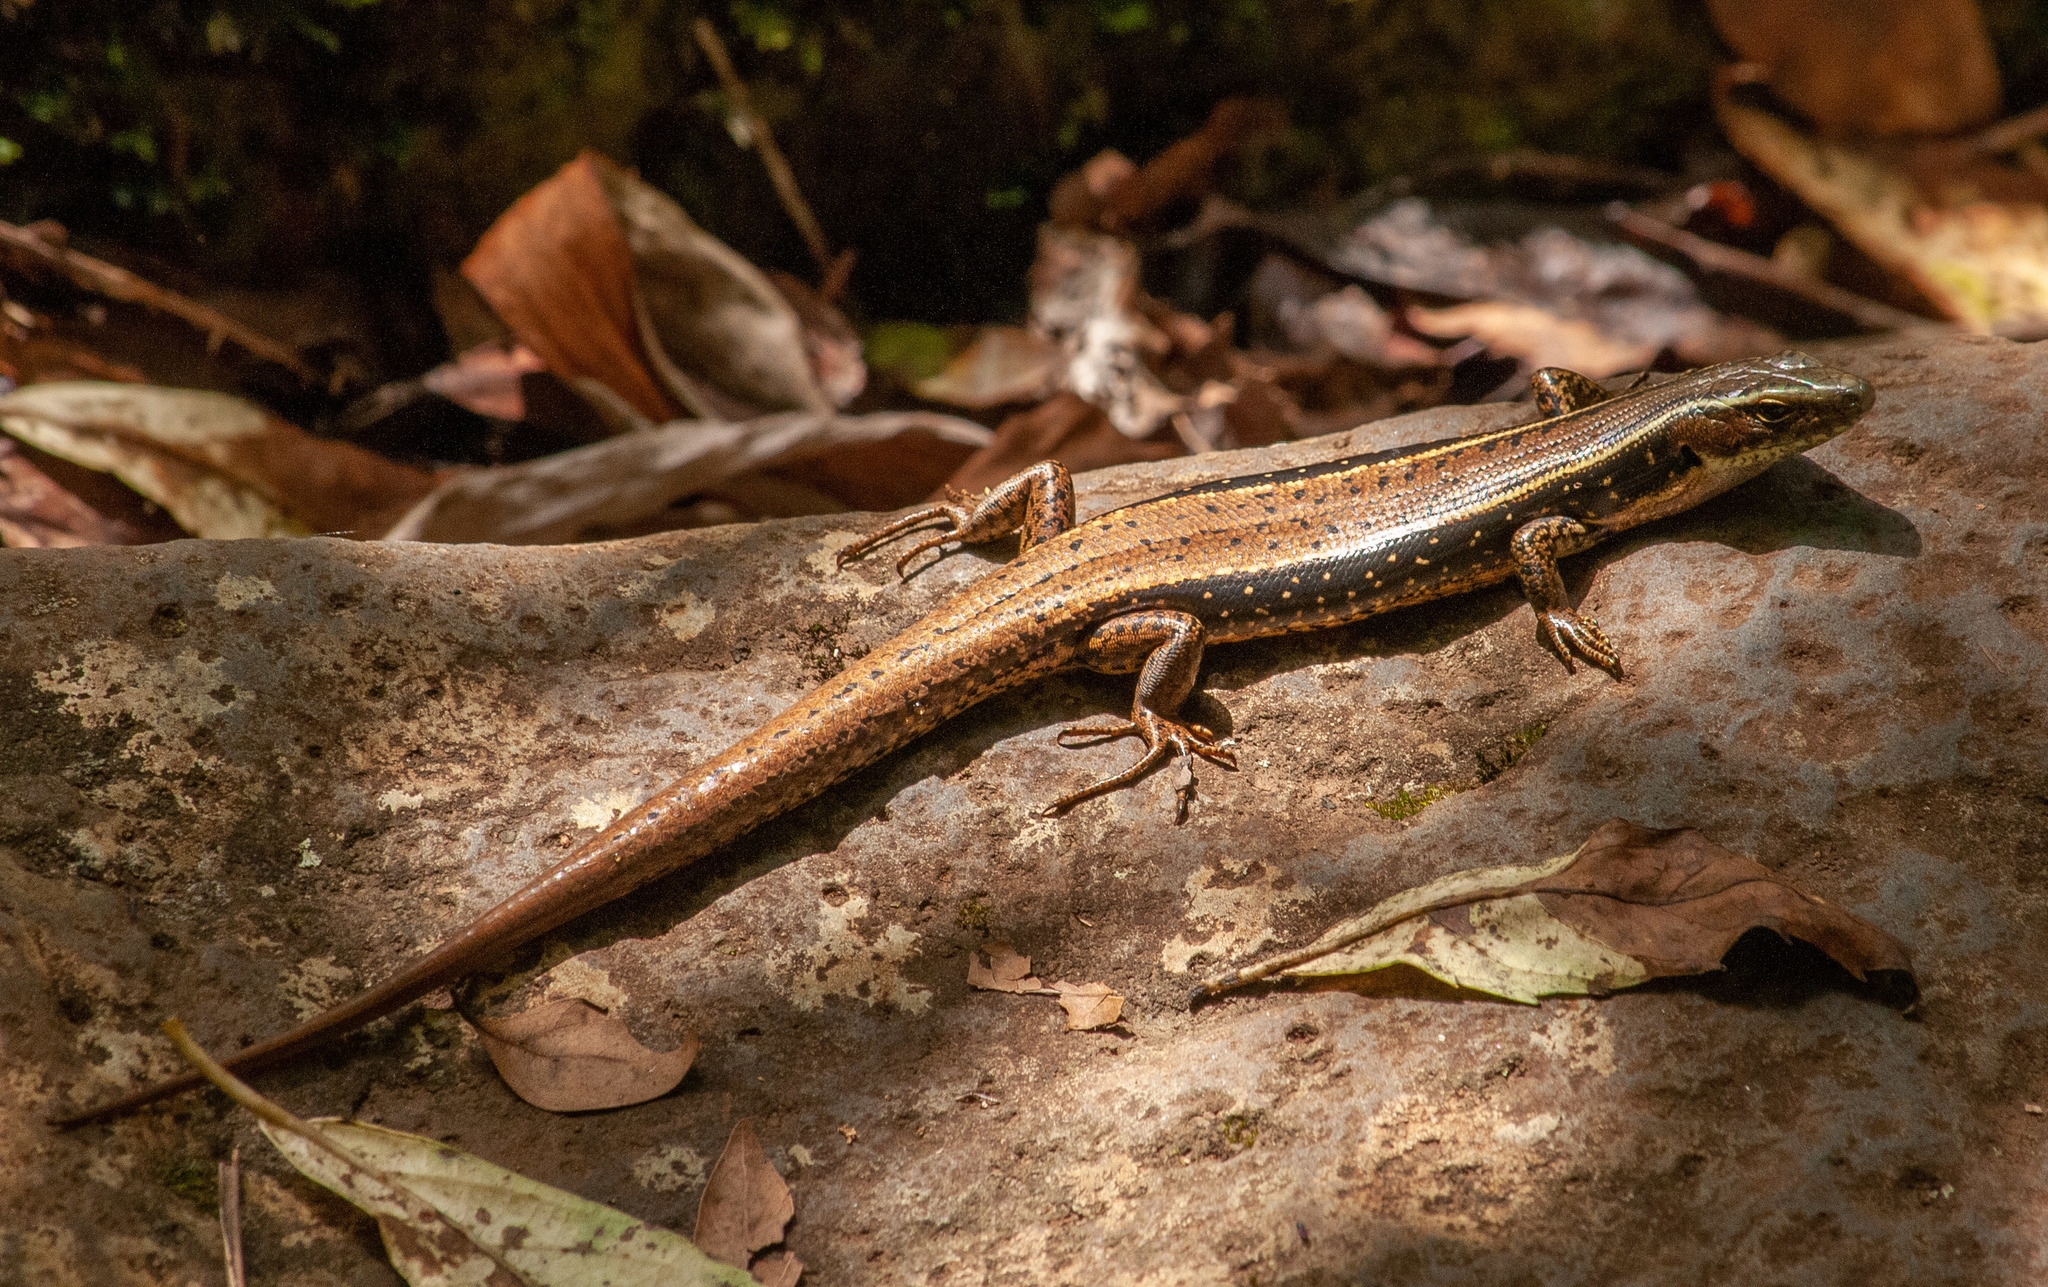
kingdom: Animalia
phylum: Chordata
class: Squamata
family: Scincidae
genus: Eulamprus
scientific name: Eulamprus quoyii
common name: Eastern water skink
